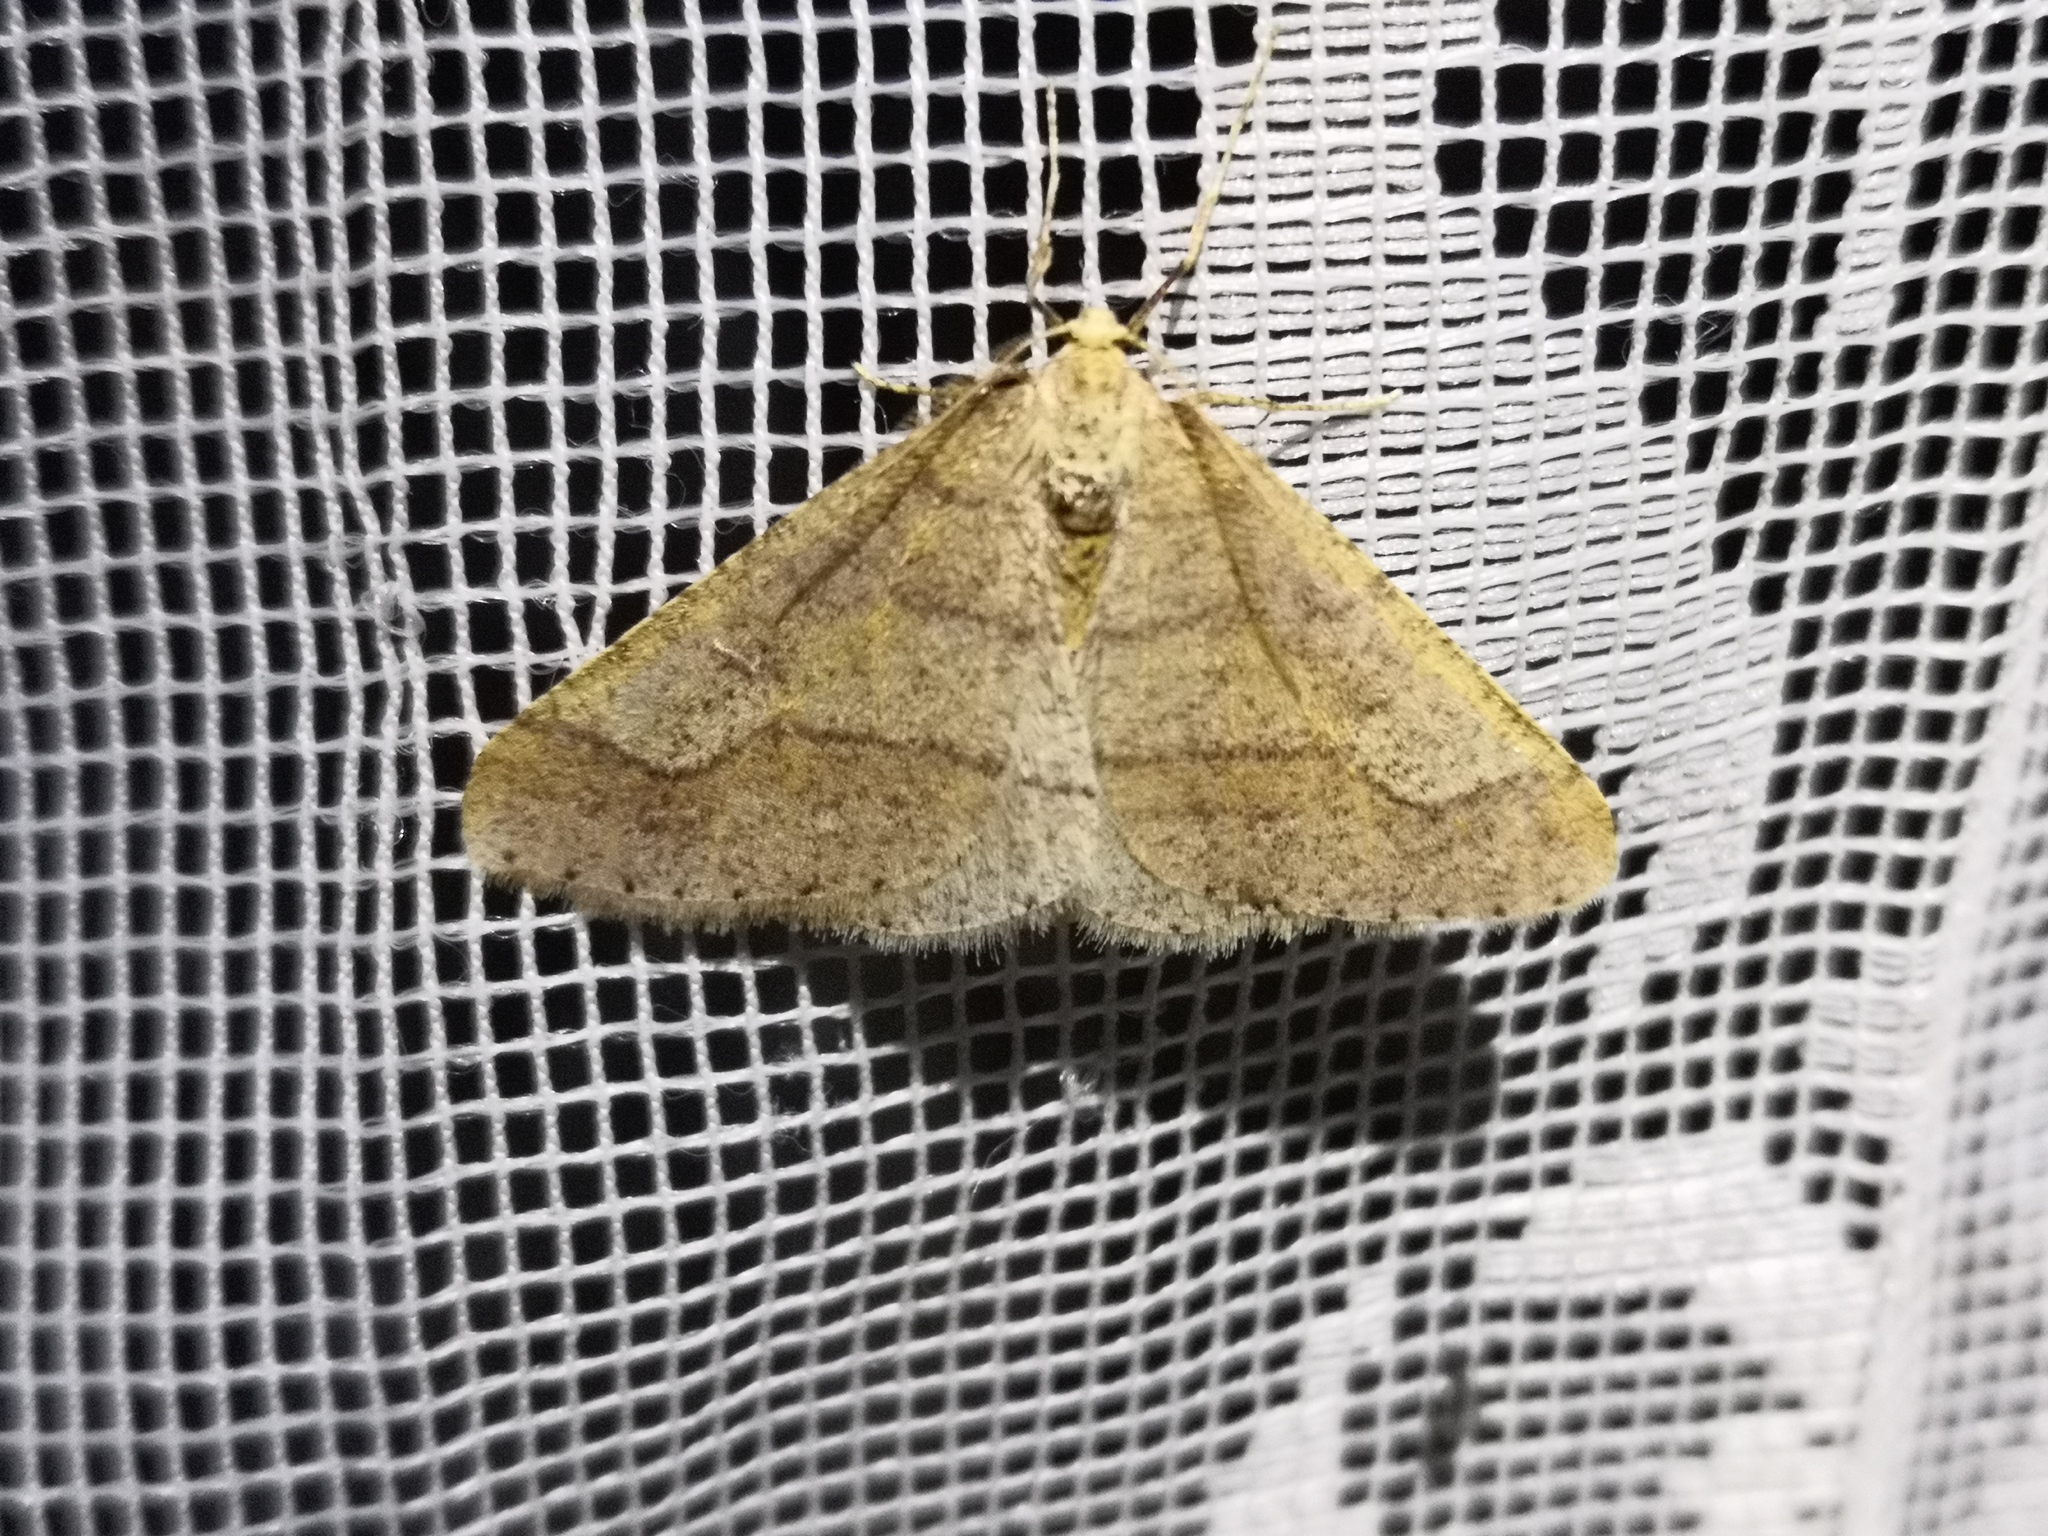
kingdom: Animalia
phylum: Arthropoda
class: Insecta
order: Lepidoptera
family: Geometridae
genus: Agriopis
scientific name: Agriopis marginaria
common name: Dotted border
